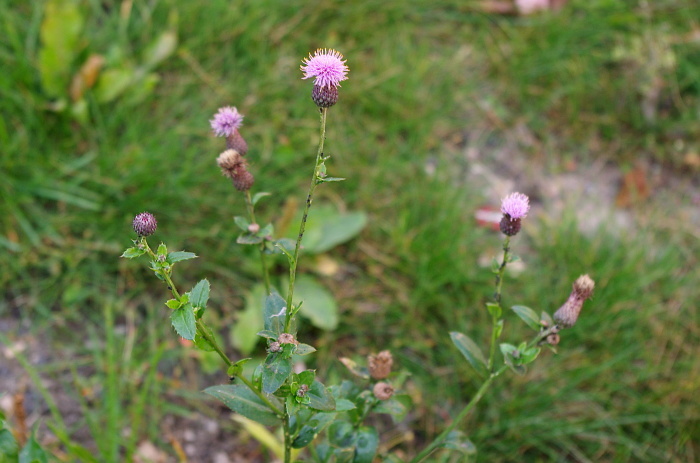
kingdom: Plantae
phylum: Tracheophyta
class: Magnoliopsida
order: Asterales
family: Asteraceae
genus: Cirsium
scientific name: Cirsium arvense
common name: Creeping thistle
